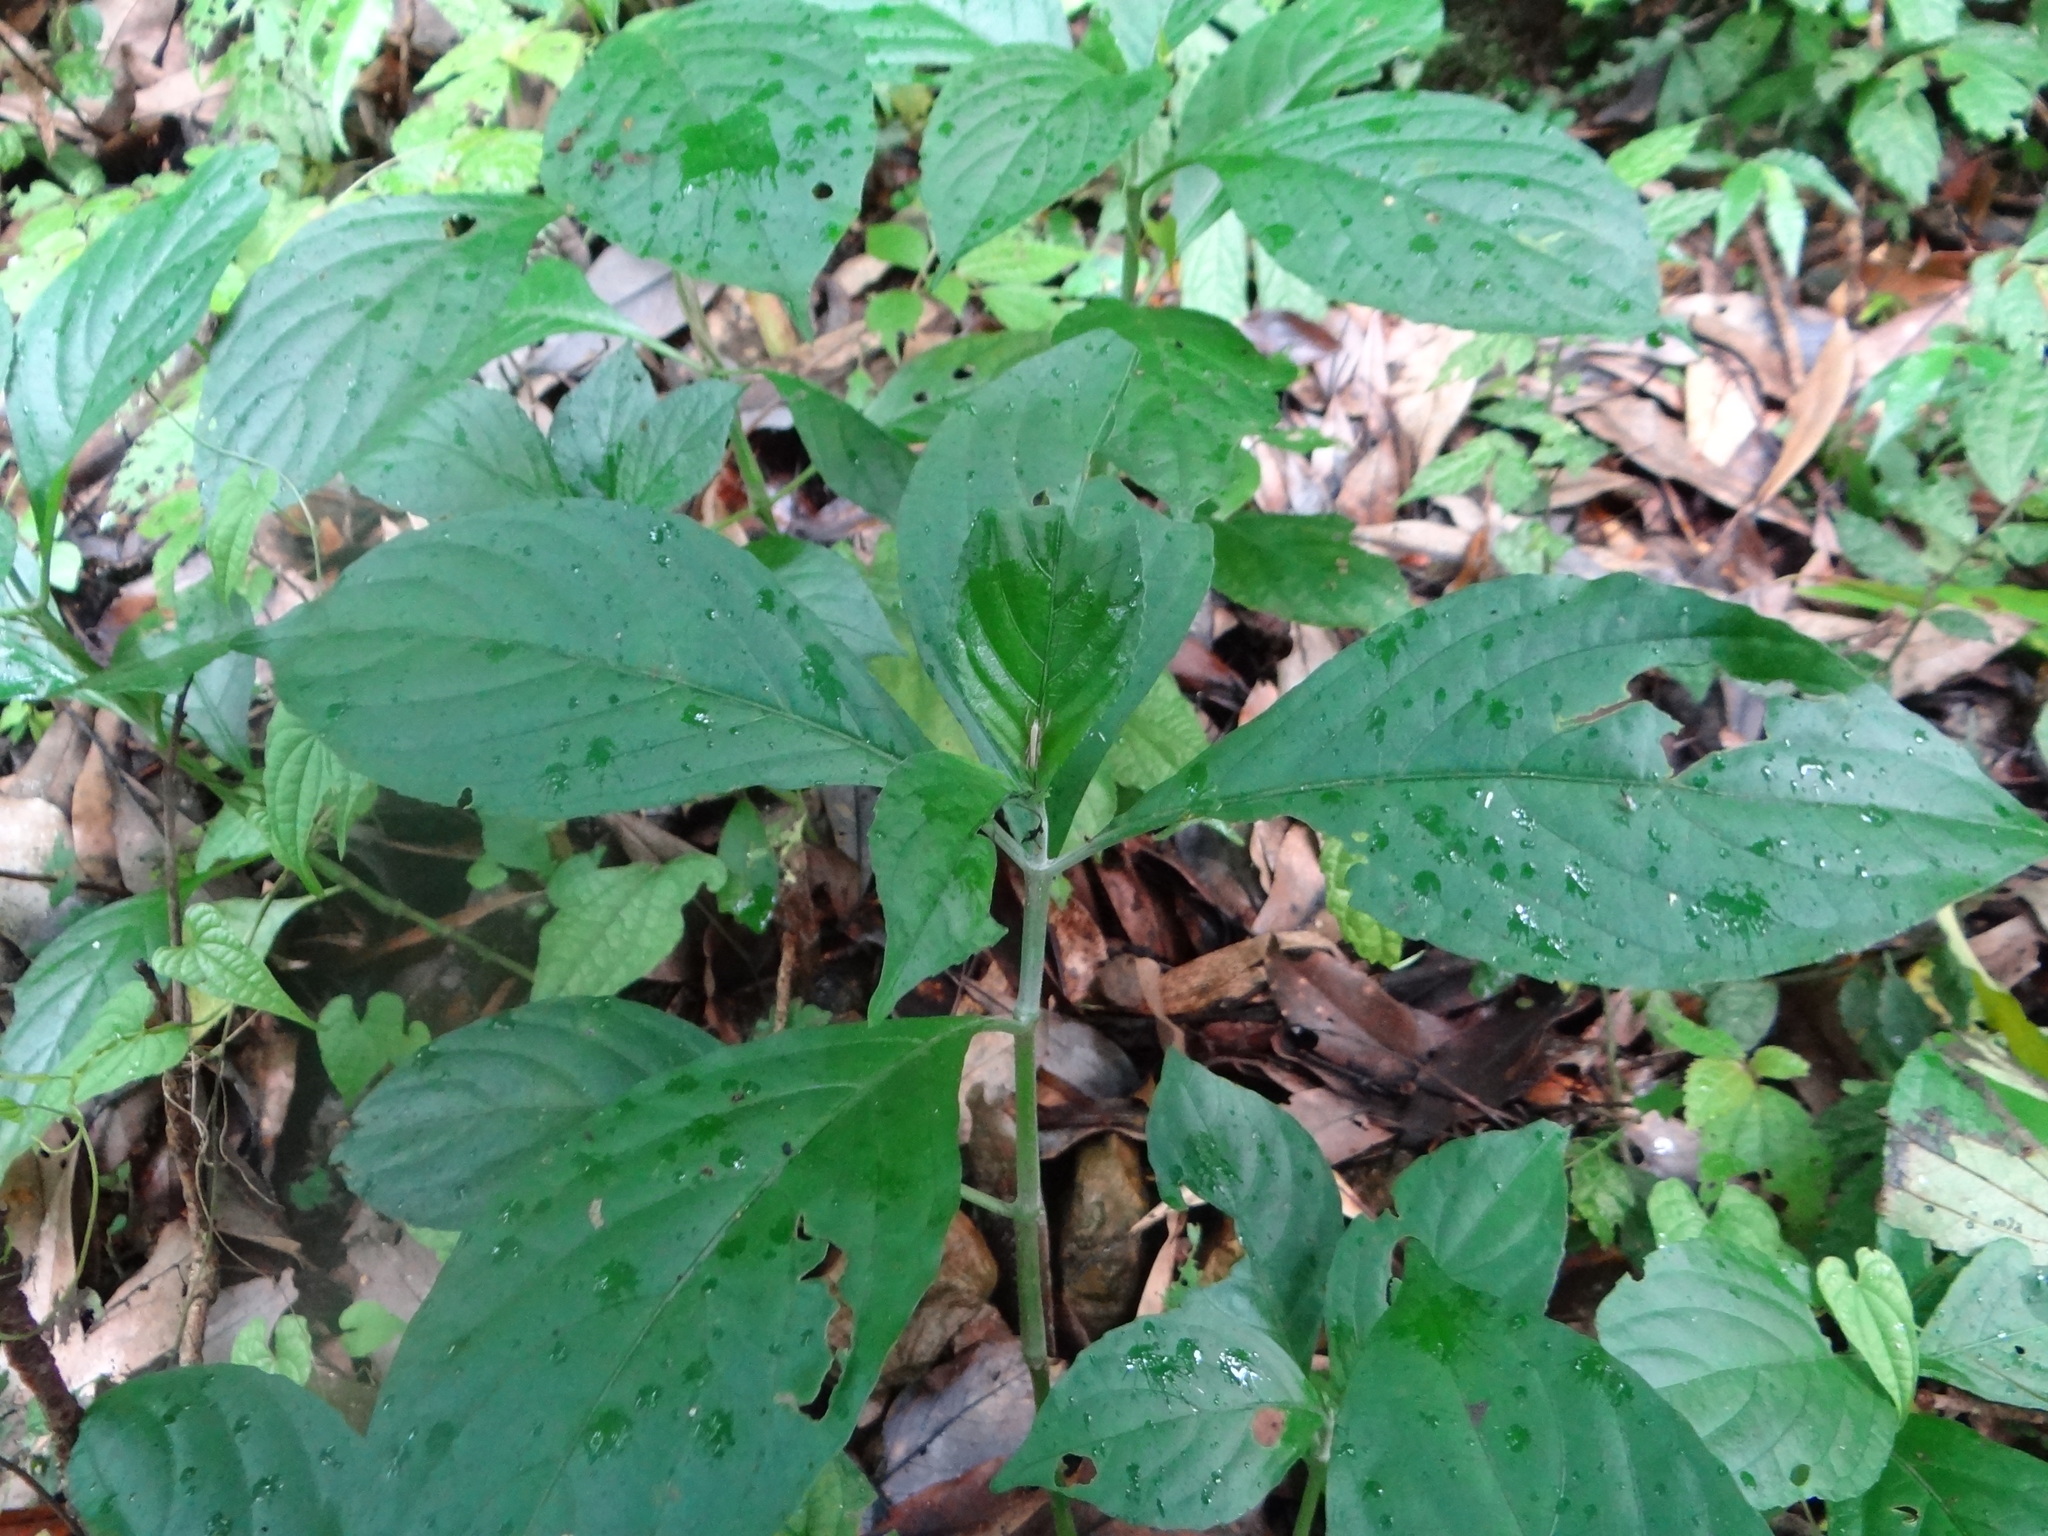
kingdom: Plantae
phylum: Tracheophyta
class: Magnoliopsida
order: Lamiales
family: Acanthaceae
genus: Strobilanthes
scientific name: Strobilanthes cusia
